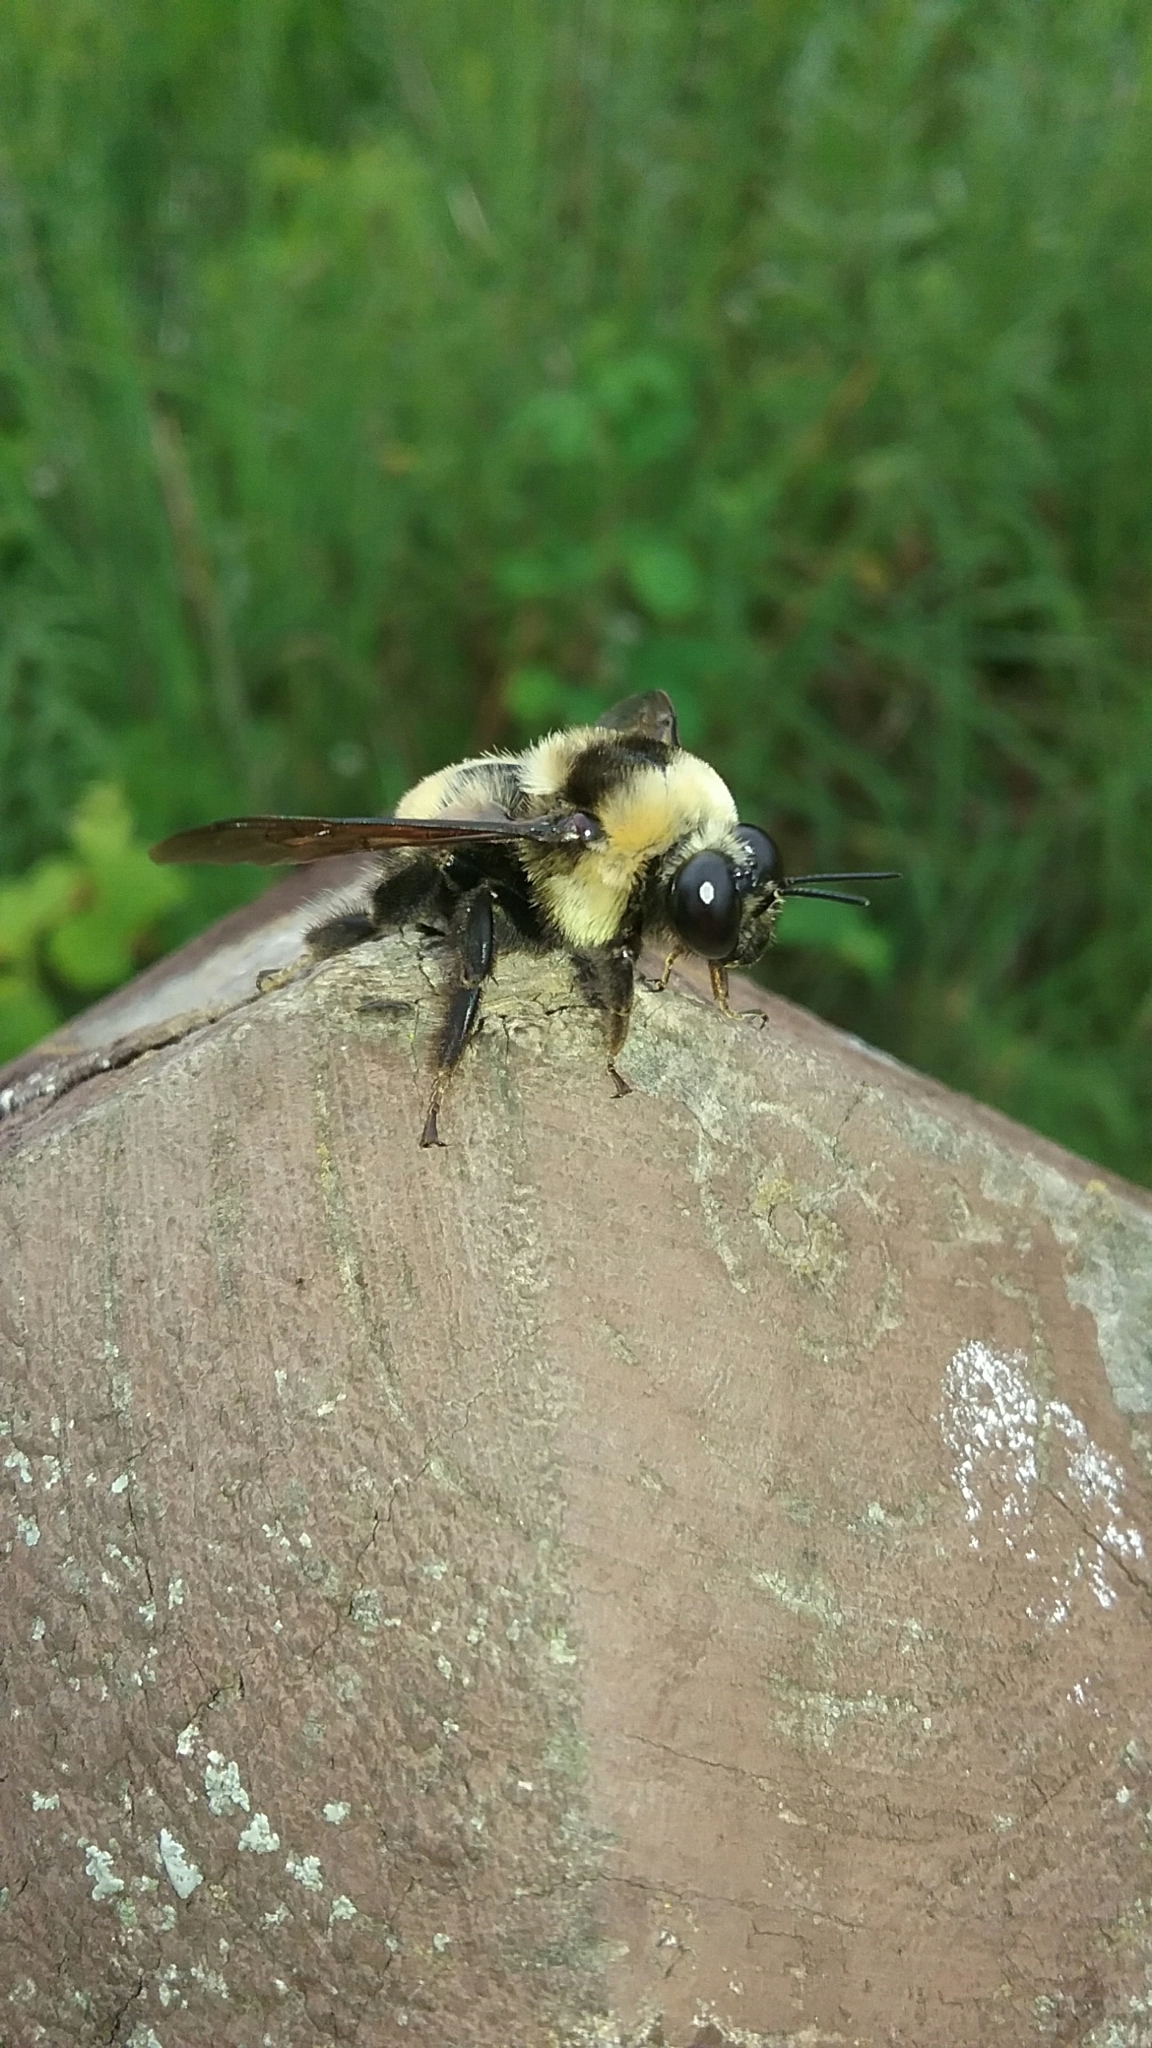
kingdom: Animalia
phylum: Arthropoda
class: Insecta
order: Hymenoptera
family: Apidae
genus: Bombus
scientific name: Bombus auricomus
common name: Black and gold bumble bee
